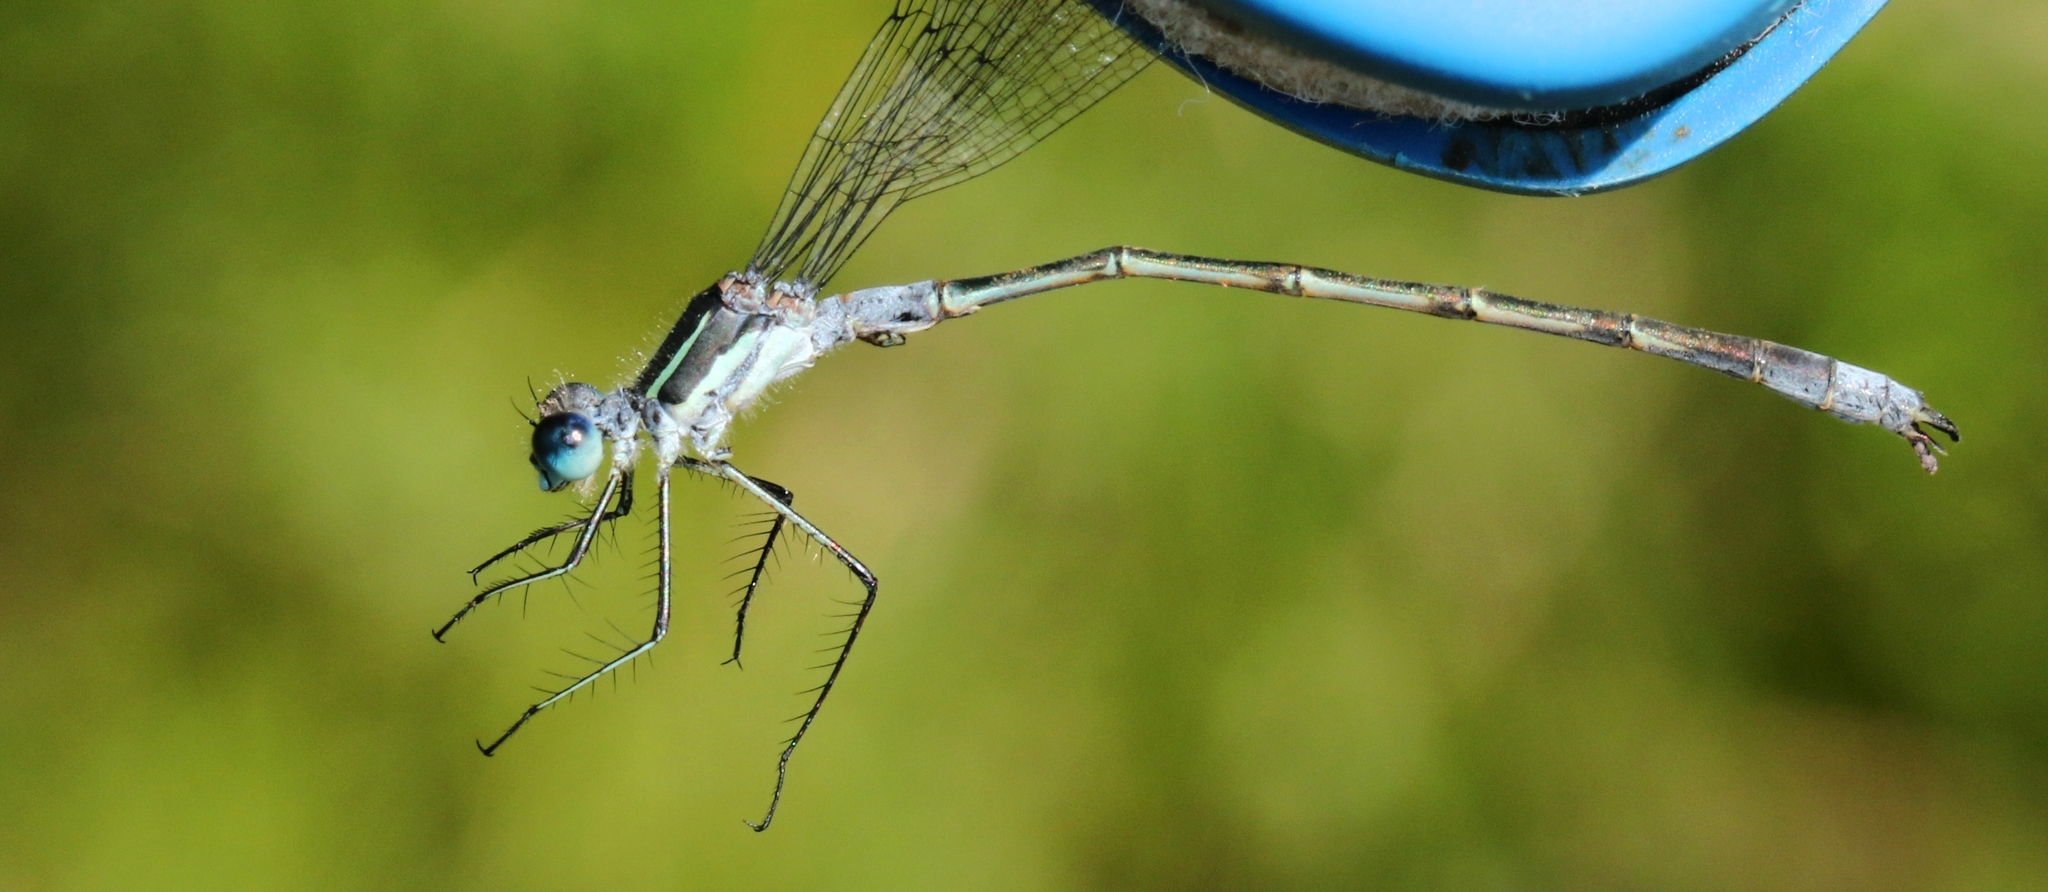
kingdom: Animalia
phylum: Arthropoda
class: Insecta
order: Odonata
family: Lestidae
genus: Lestes
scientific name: Lestes disjunctus
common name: Northern spreadwing
